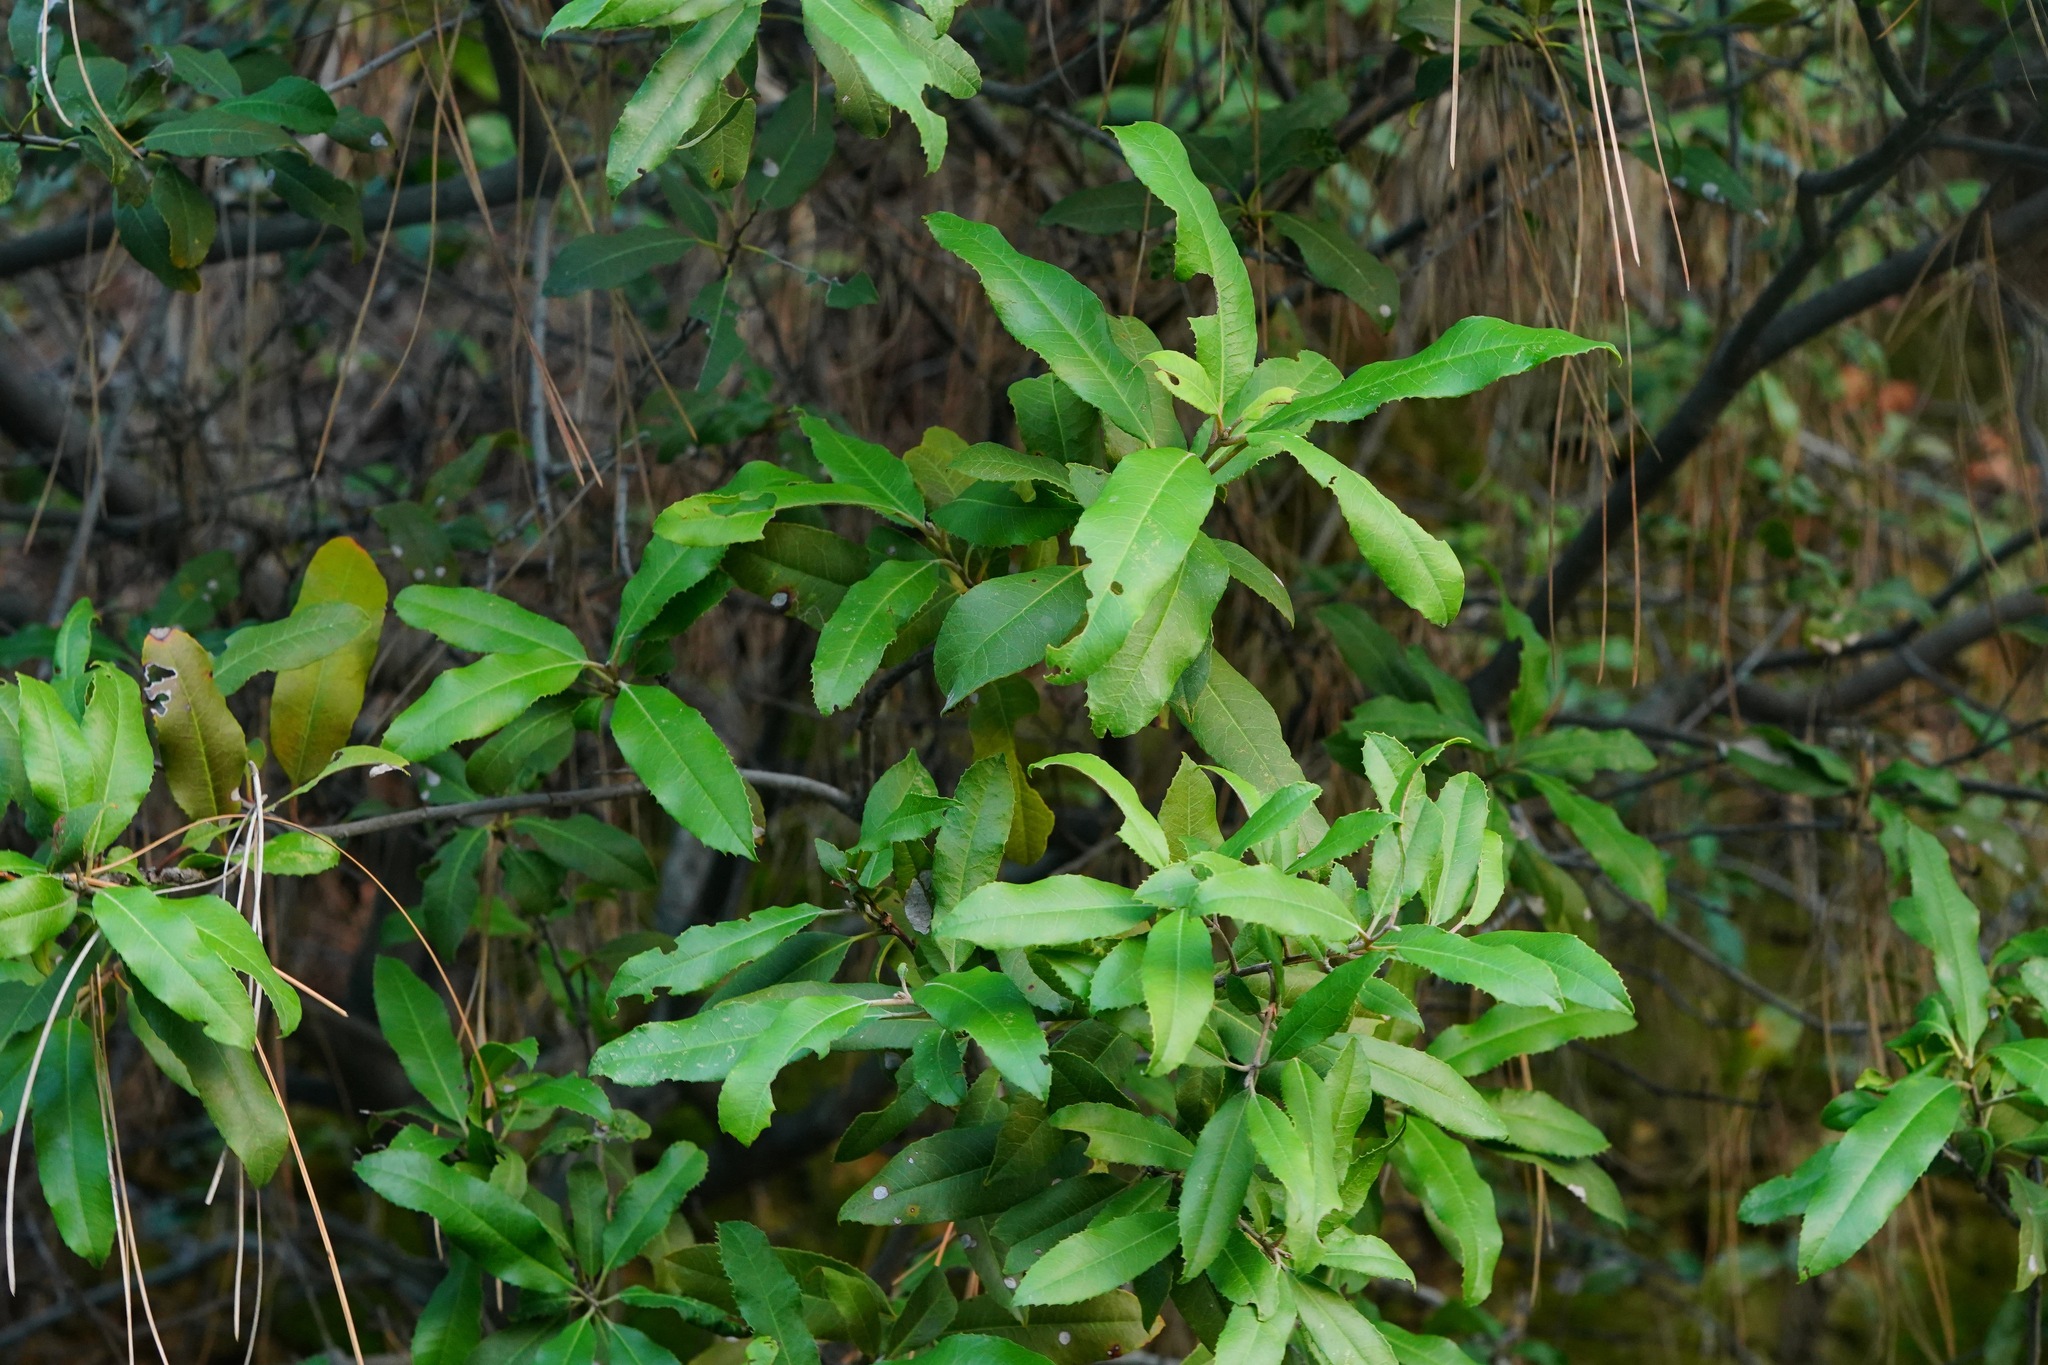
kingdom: Plantae
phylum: Tracheophyta
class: Magnoliopsida
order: Rosales
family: Rosaceae
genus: Heteromeles
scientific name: Heteromeles arbutifolia
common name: California-holly
